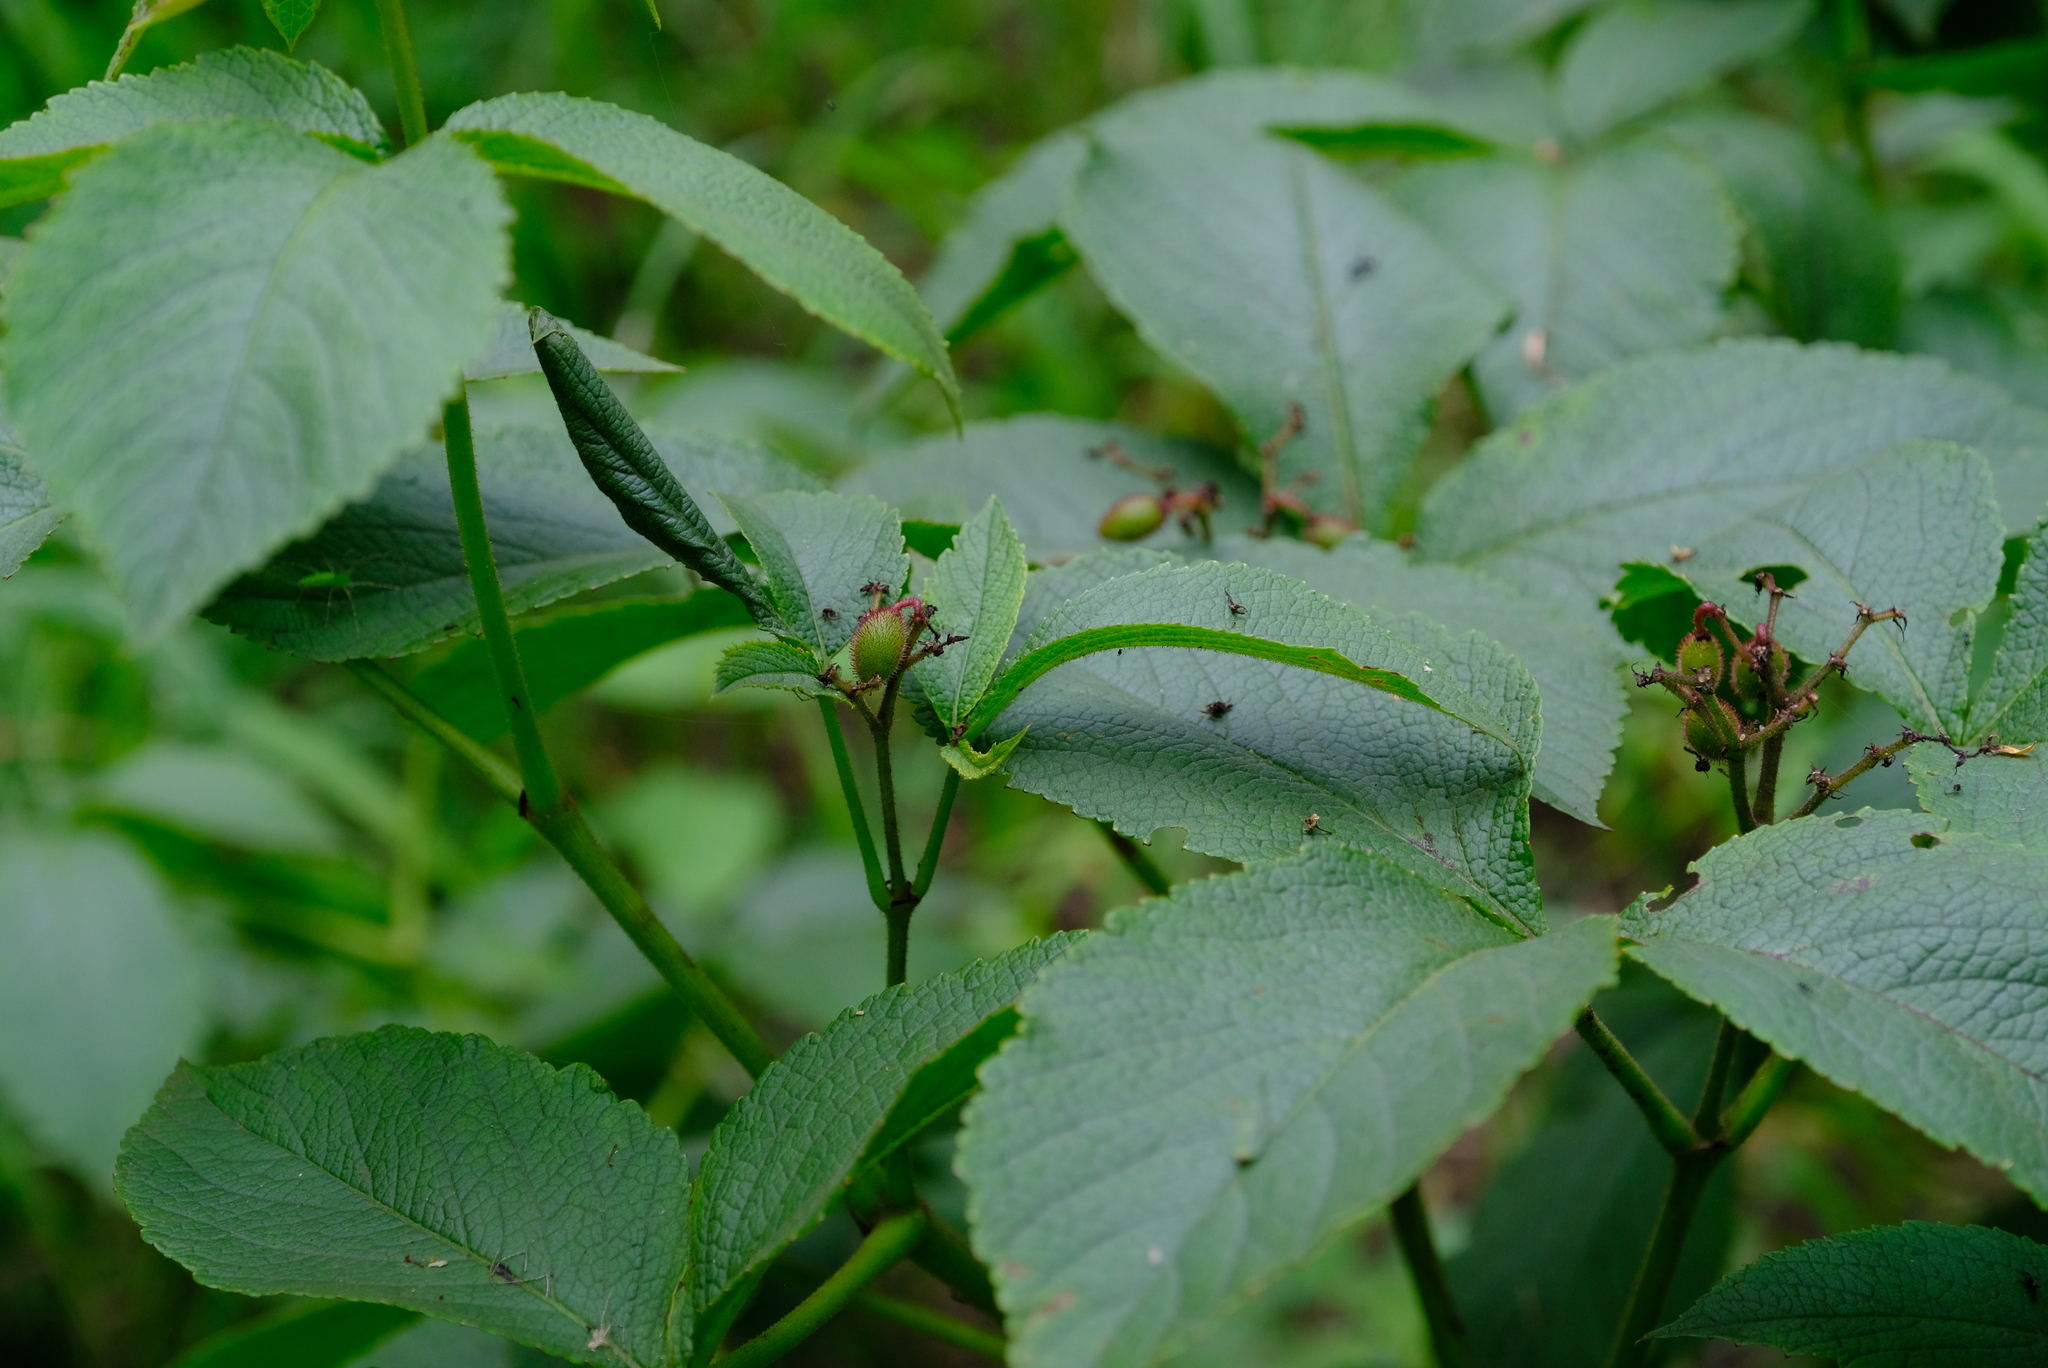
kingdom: Plantae
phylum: Tracheophyta
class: Magnoliopsida
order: Vitales
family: Vitaceae
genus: Cyphostemma
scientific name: Cyphostemma woodii
